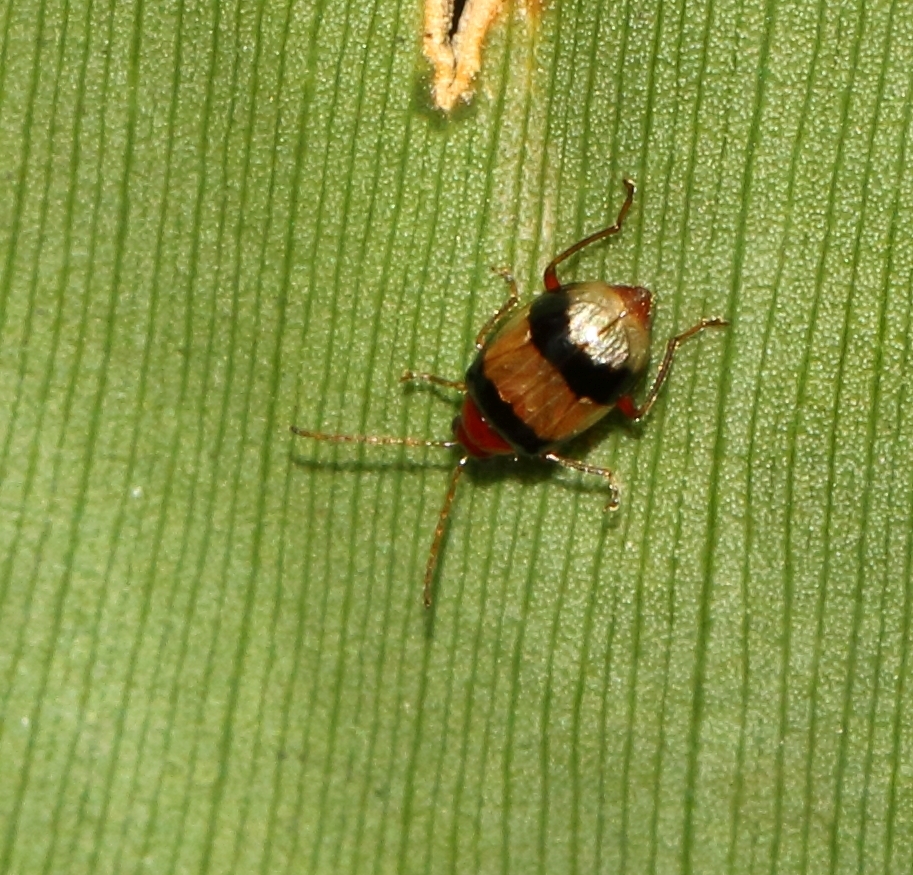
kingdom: Animalia
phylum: Arthropoda
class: Insecta
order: Coleoptera
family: Chrysomelidae
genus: Monolepta
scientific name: Monolepta
